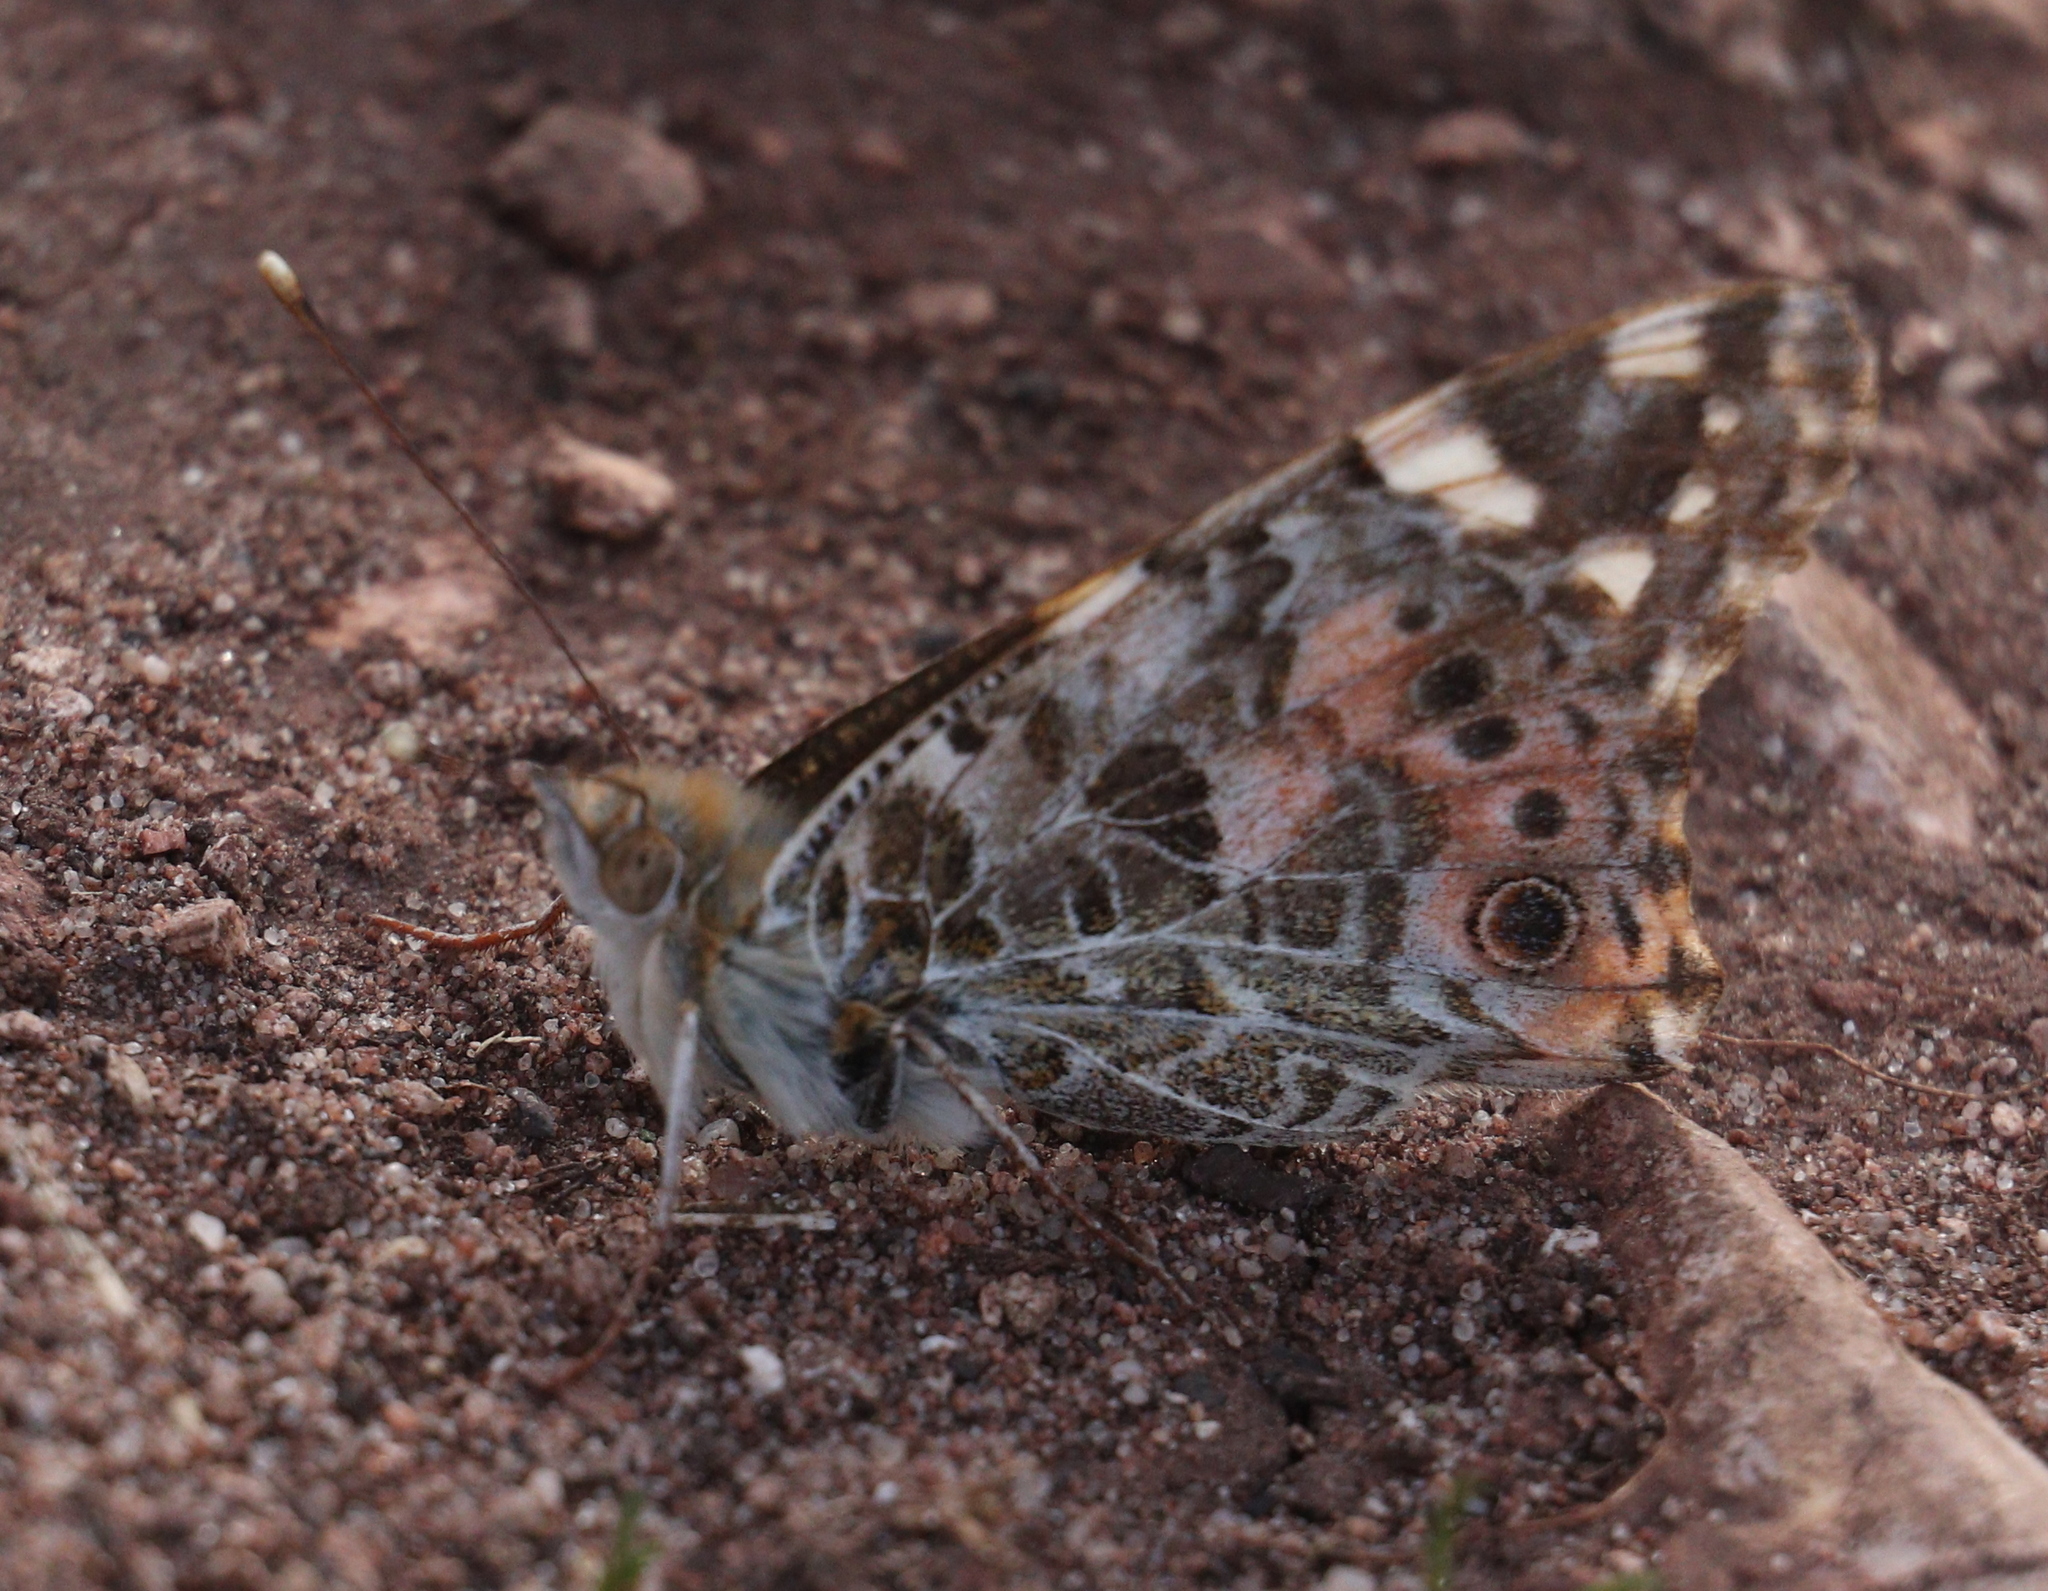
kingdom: Animalia
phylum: Arthropoda
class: Insecta
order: Lepidoptera
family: Nymphalidae
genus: Vanessa
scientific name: Vanessa cardui
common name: Painted lady
